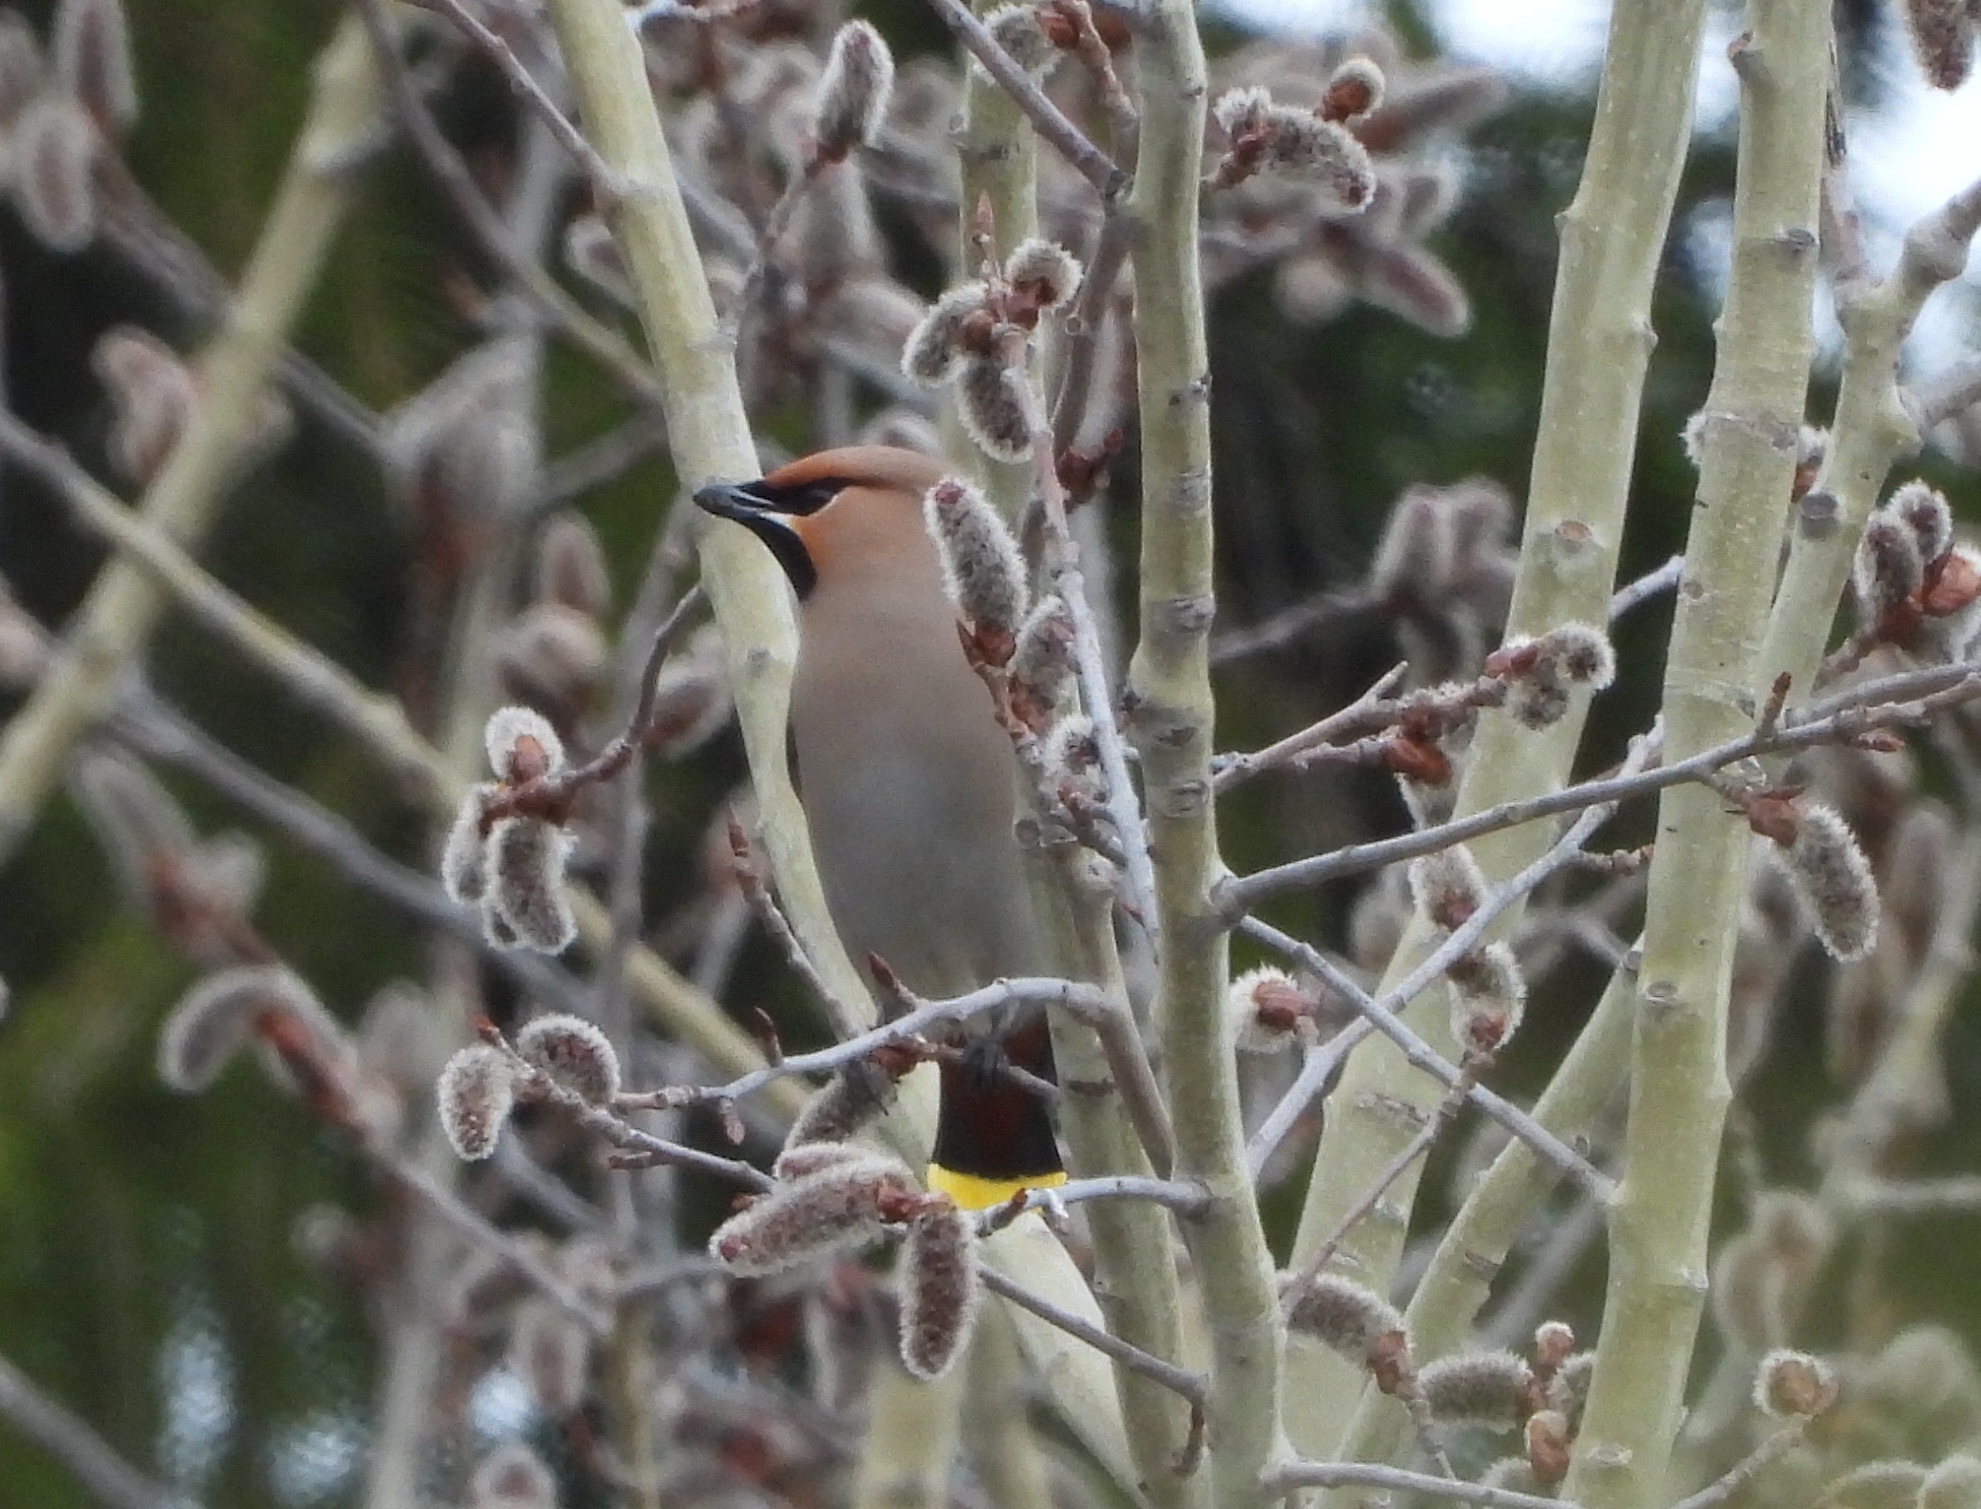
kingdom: Animalia
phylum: Chordata
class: Aves
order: Passeriformes
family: Bombycillidae
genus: Bombycilla
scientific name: Bombycilla garrulus
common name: Bohemian waxwing
